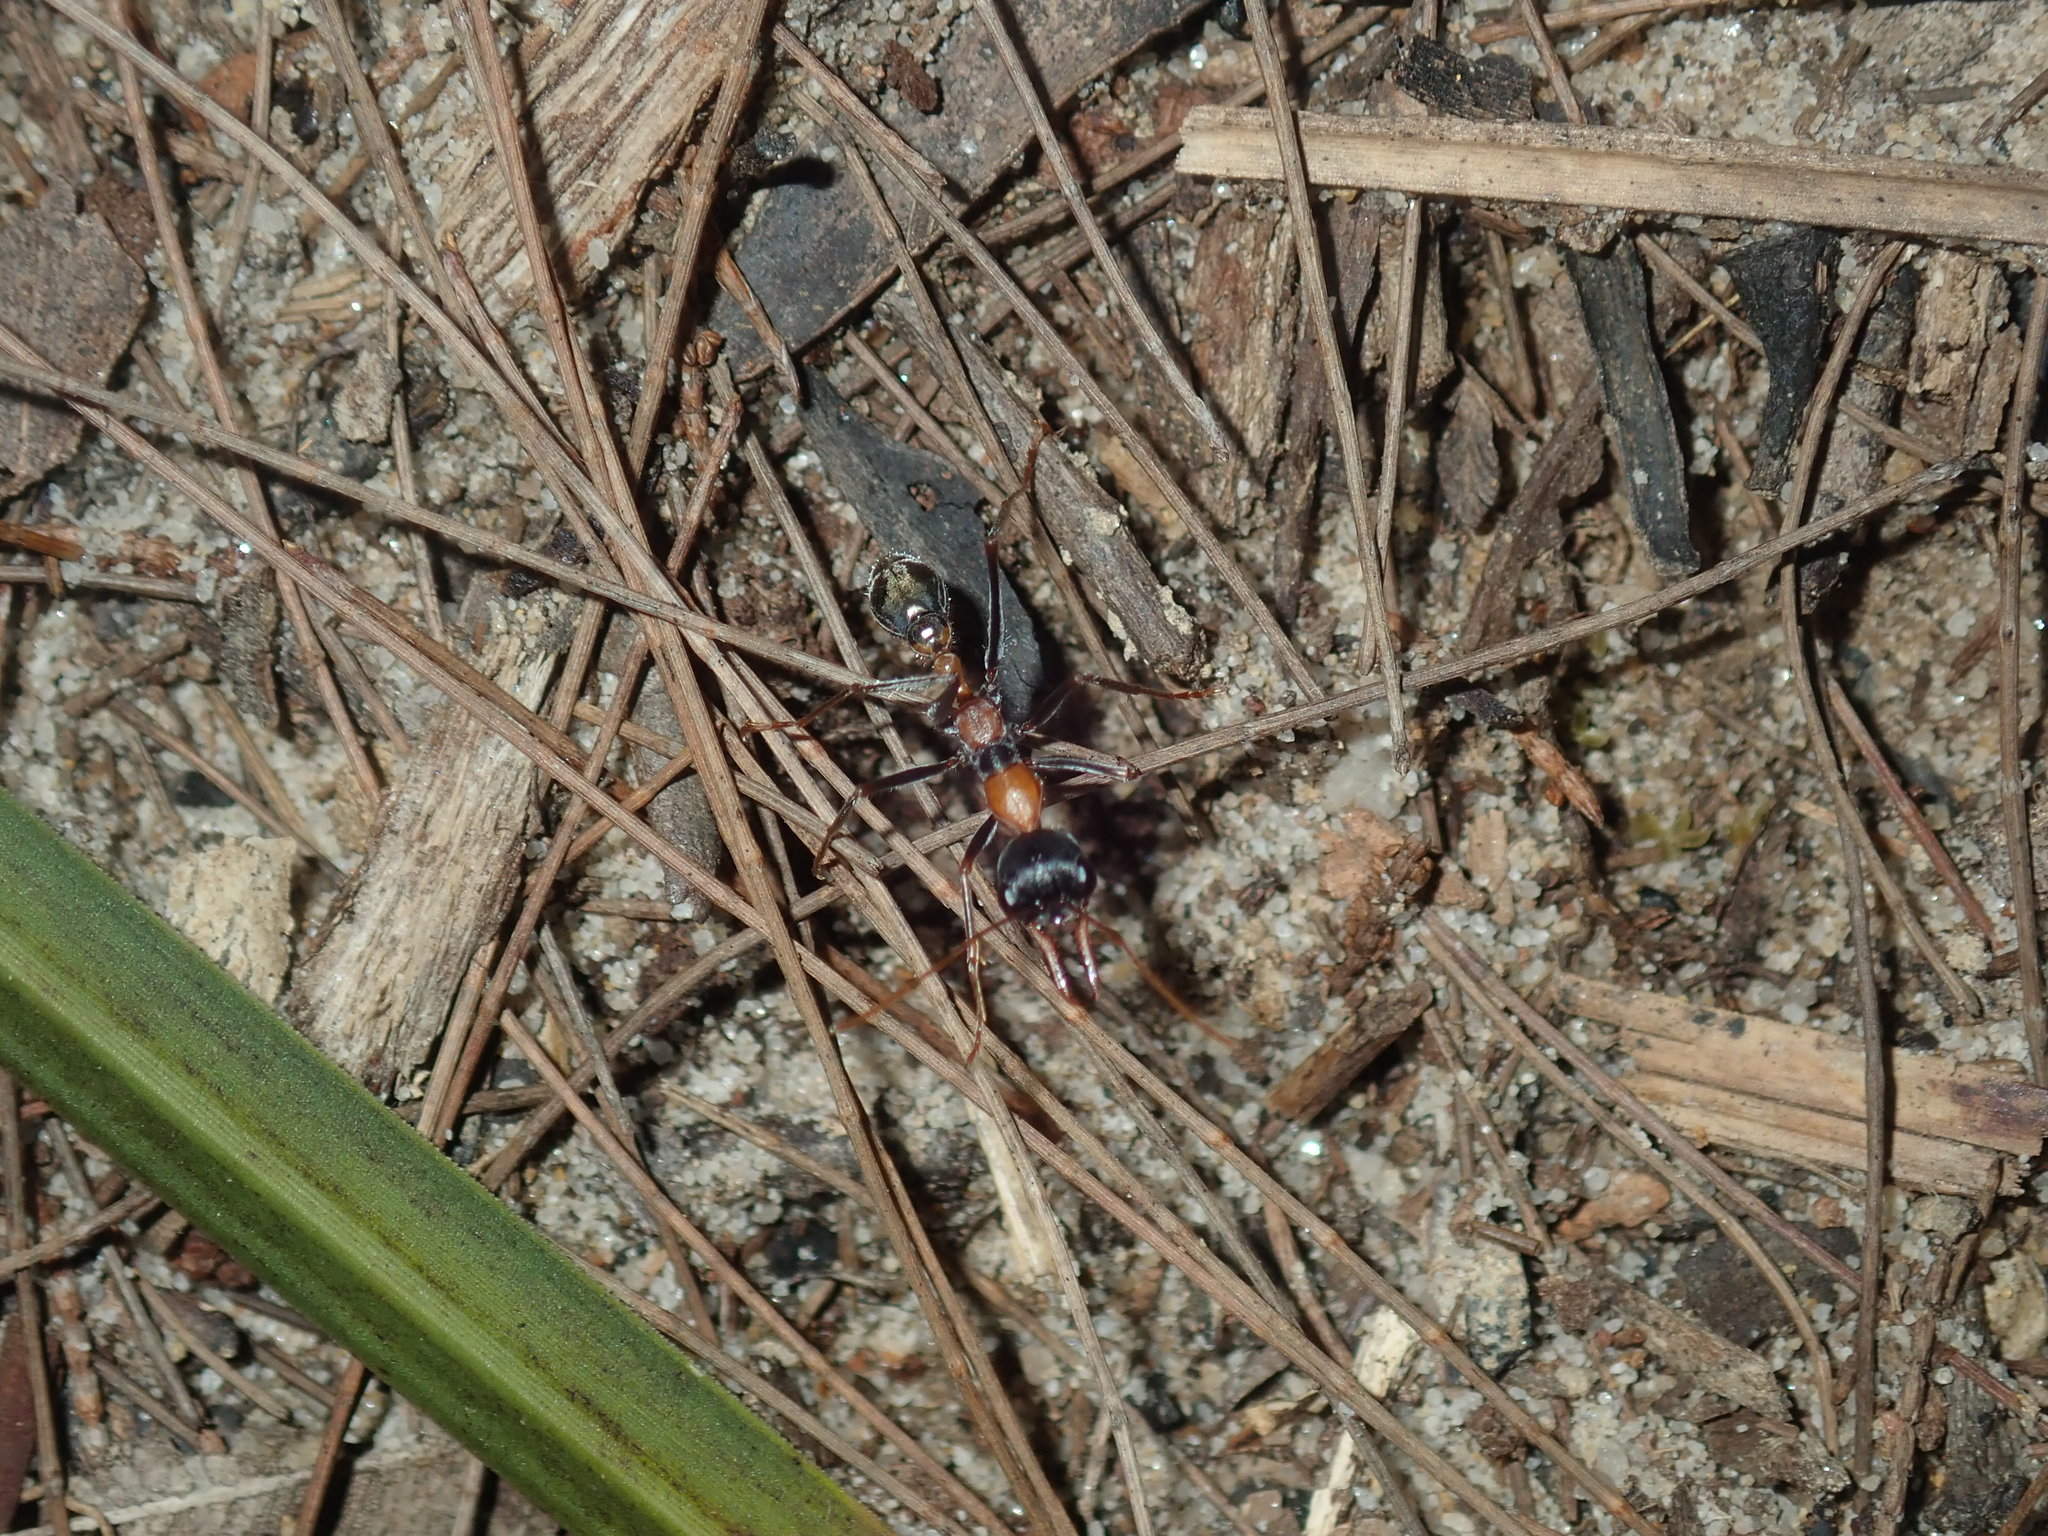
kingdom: Animalia
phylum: Arthropoda
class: Insecta
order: Hymenoptera
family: Formicidae
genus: Myrmecia
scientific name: Myrmecia nigrocincta
